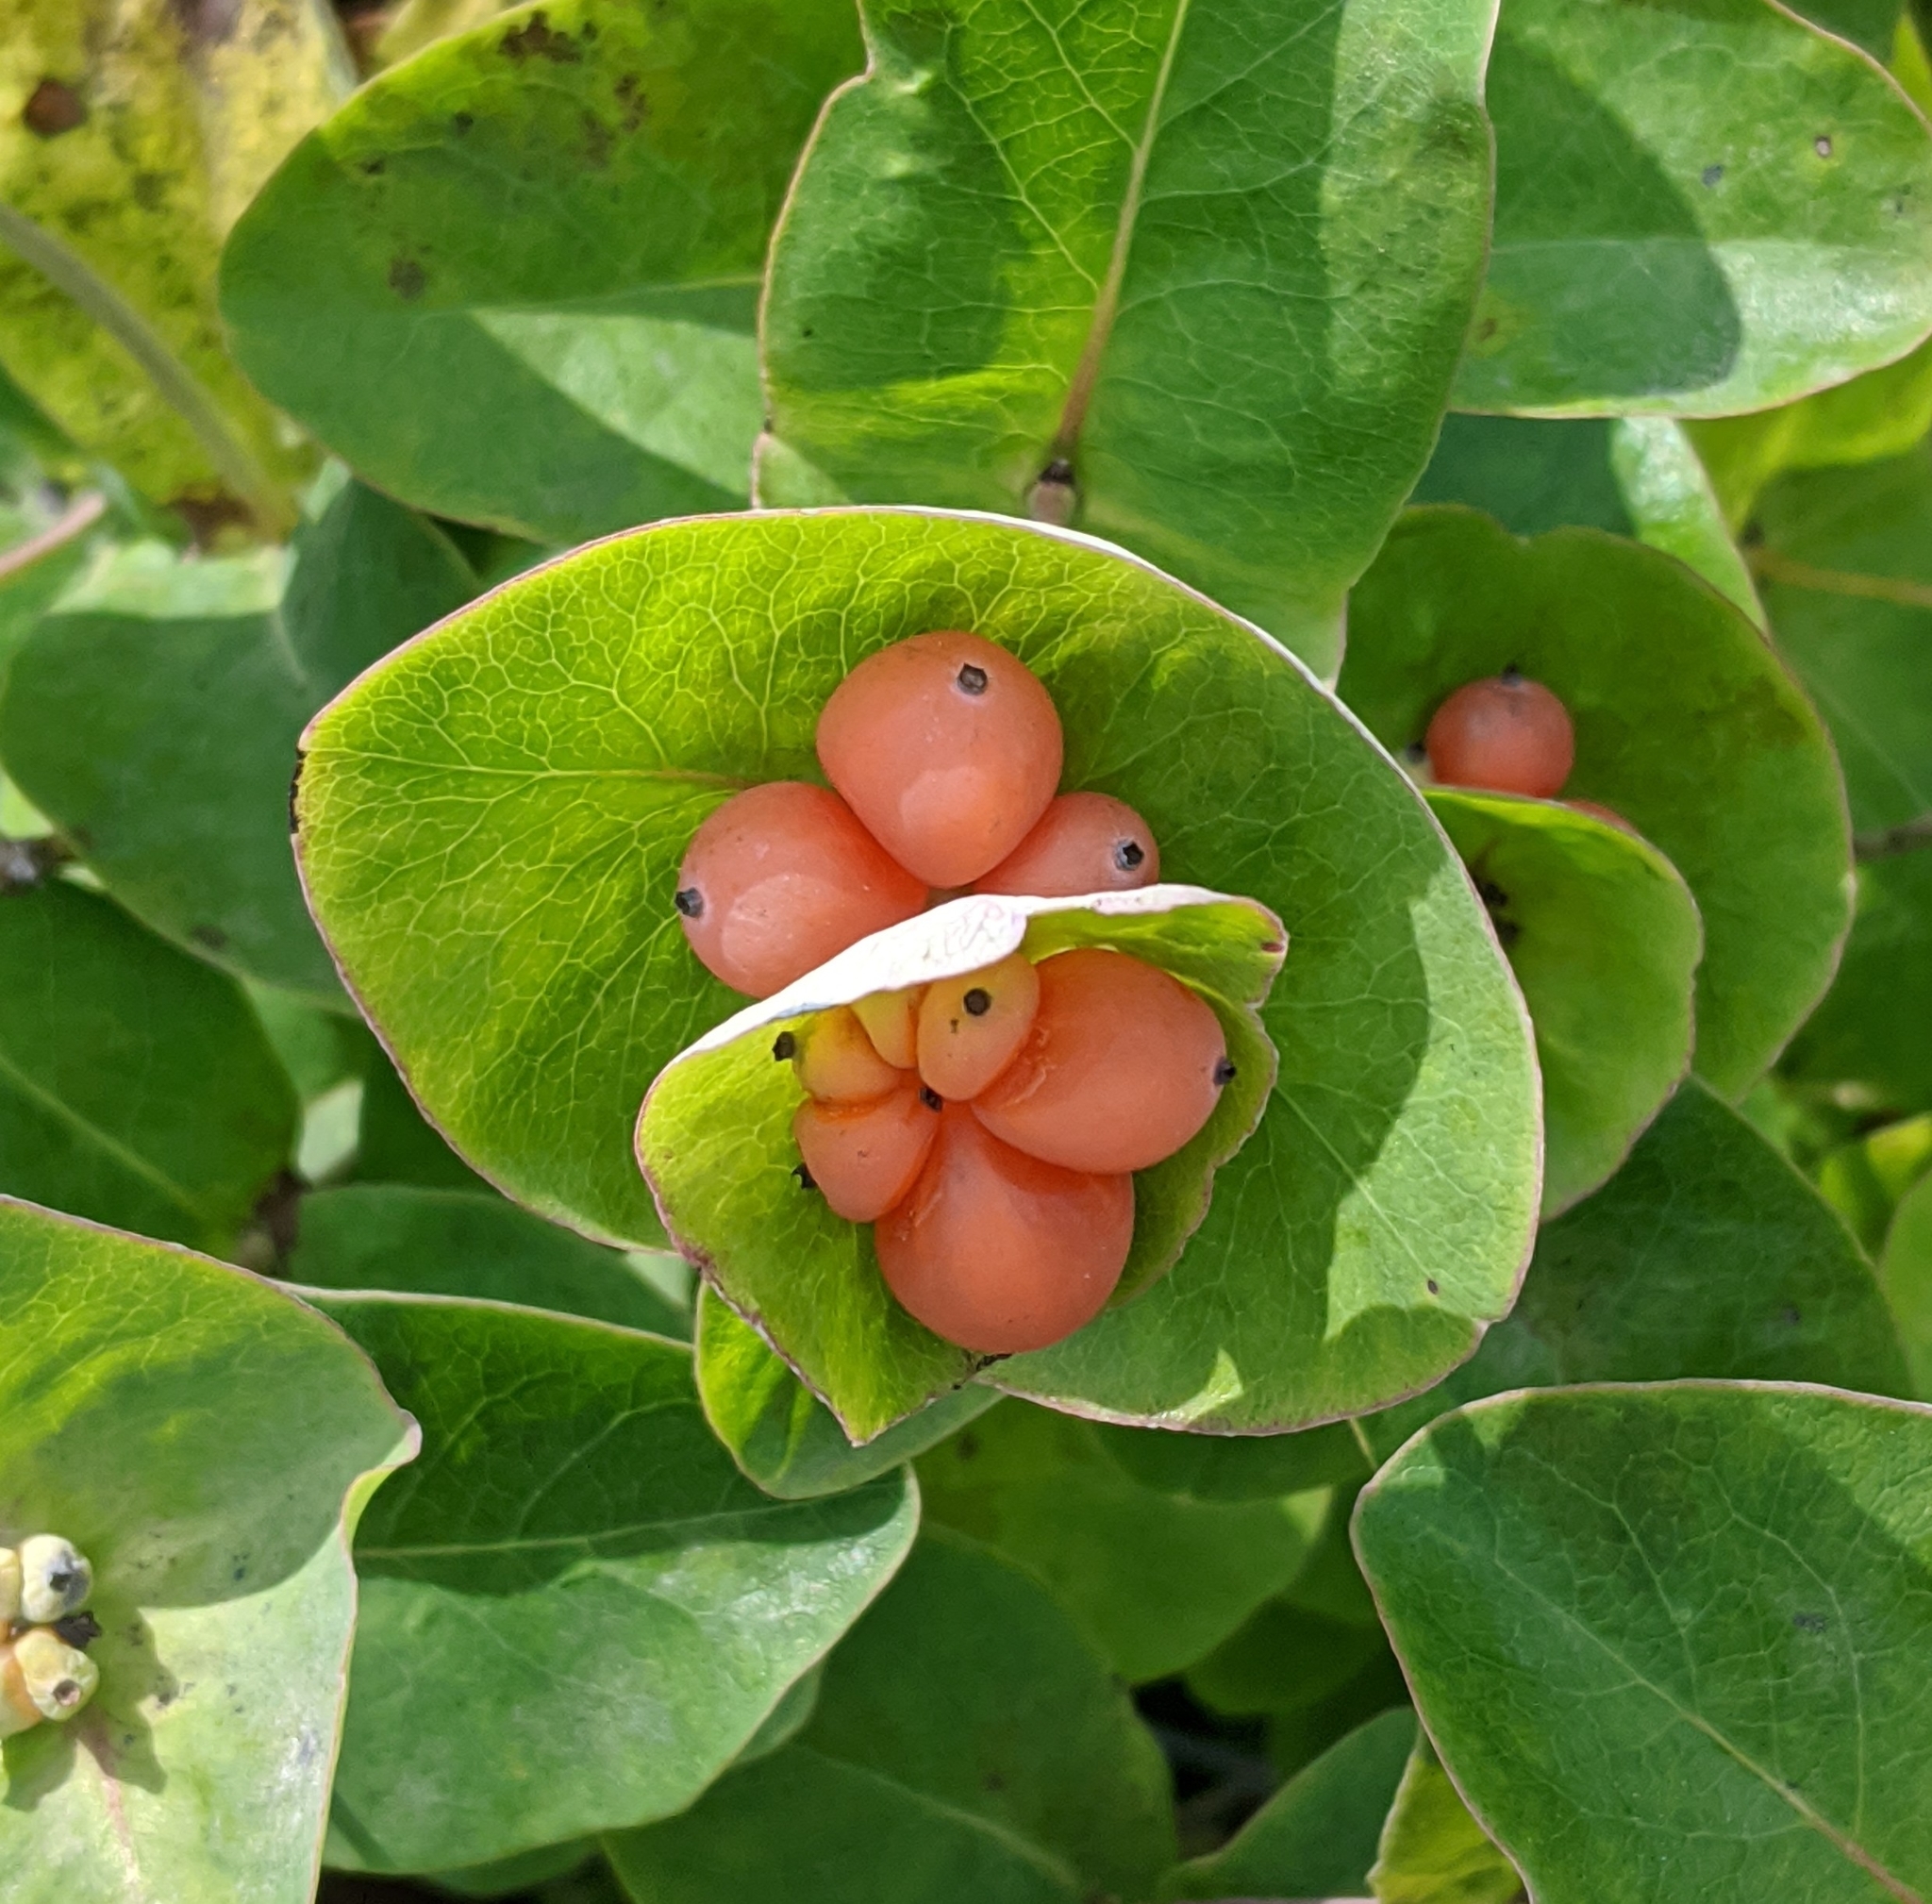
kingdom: Plantae
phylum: Tracheophyta
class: Magnoliopsida
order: Dipsacales
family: Caprifoliaceae
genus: Lonicera
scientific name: Lonicera caprifolium
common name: Perfoliate honeysuckle
